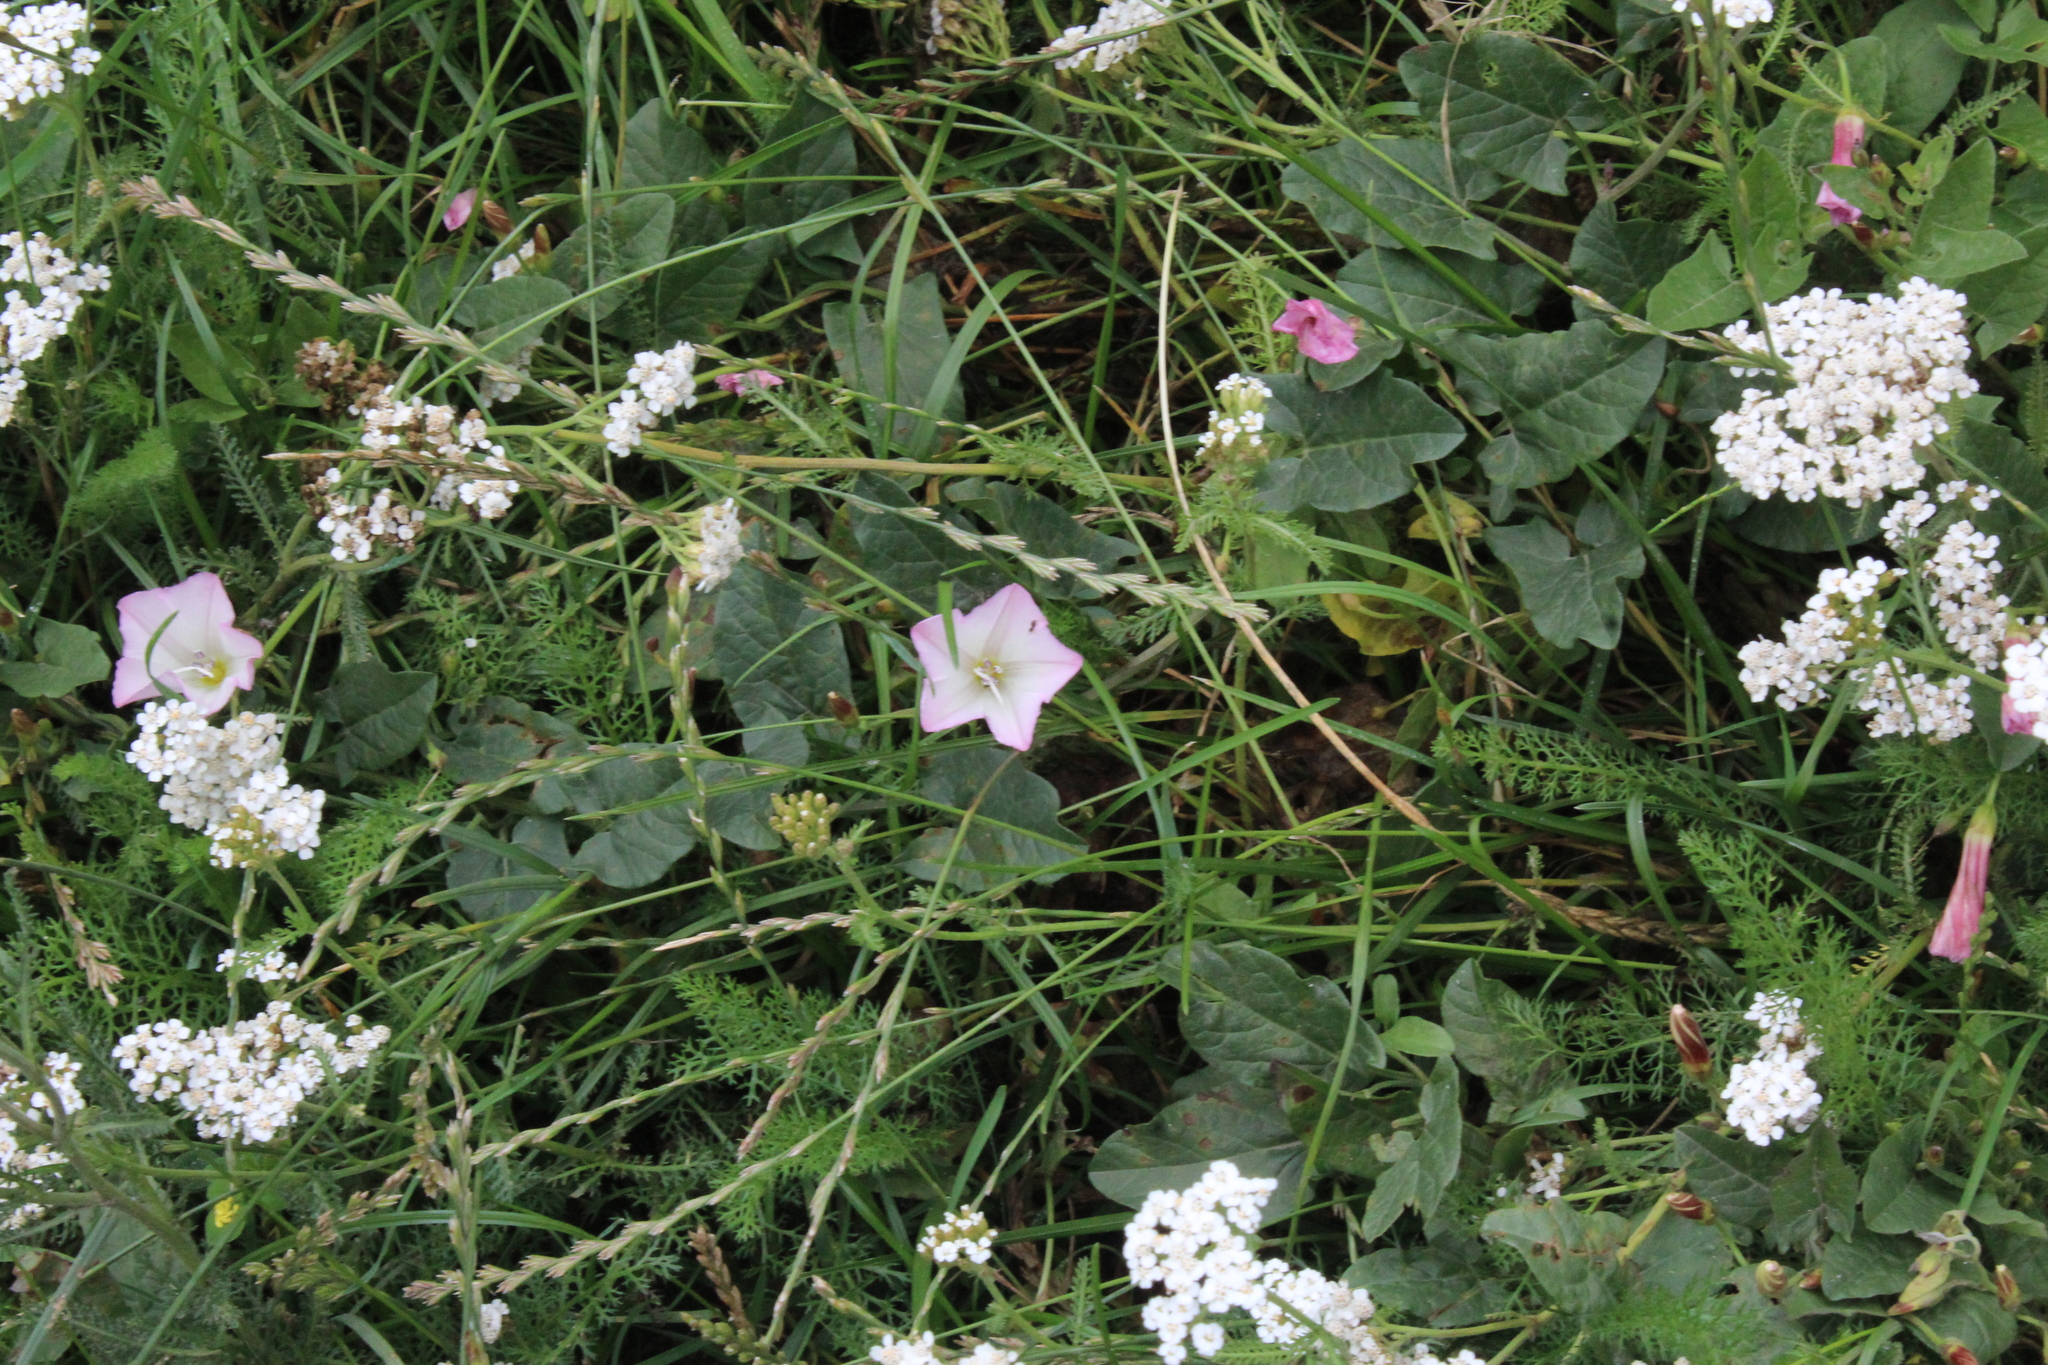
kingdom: Plantae
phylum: Tracheophyta
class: Magnoliopsida
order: Solanales
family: Convolvulaceae
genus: Convolvulus
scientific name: Convolvulus arvensis
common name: Field bindweed
